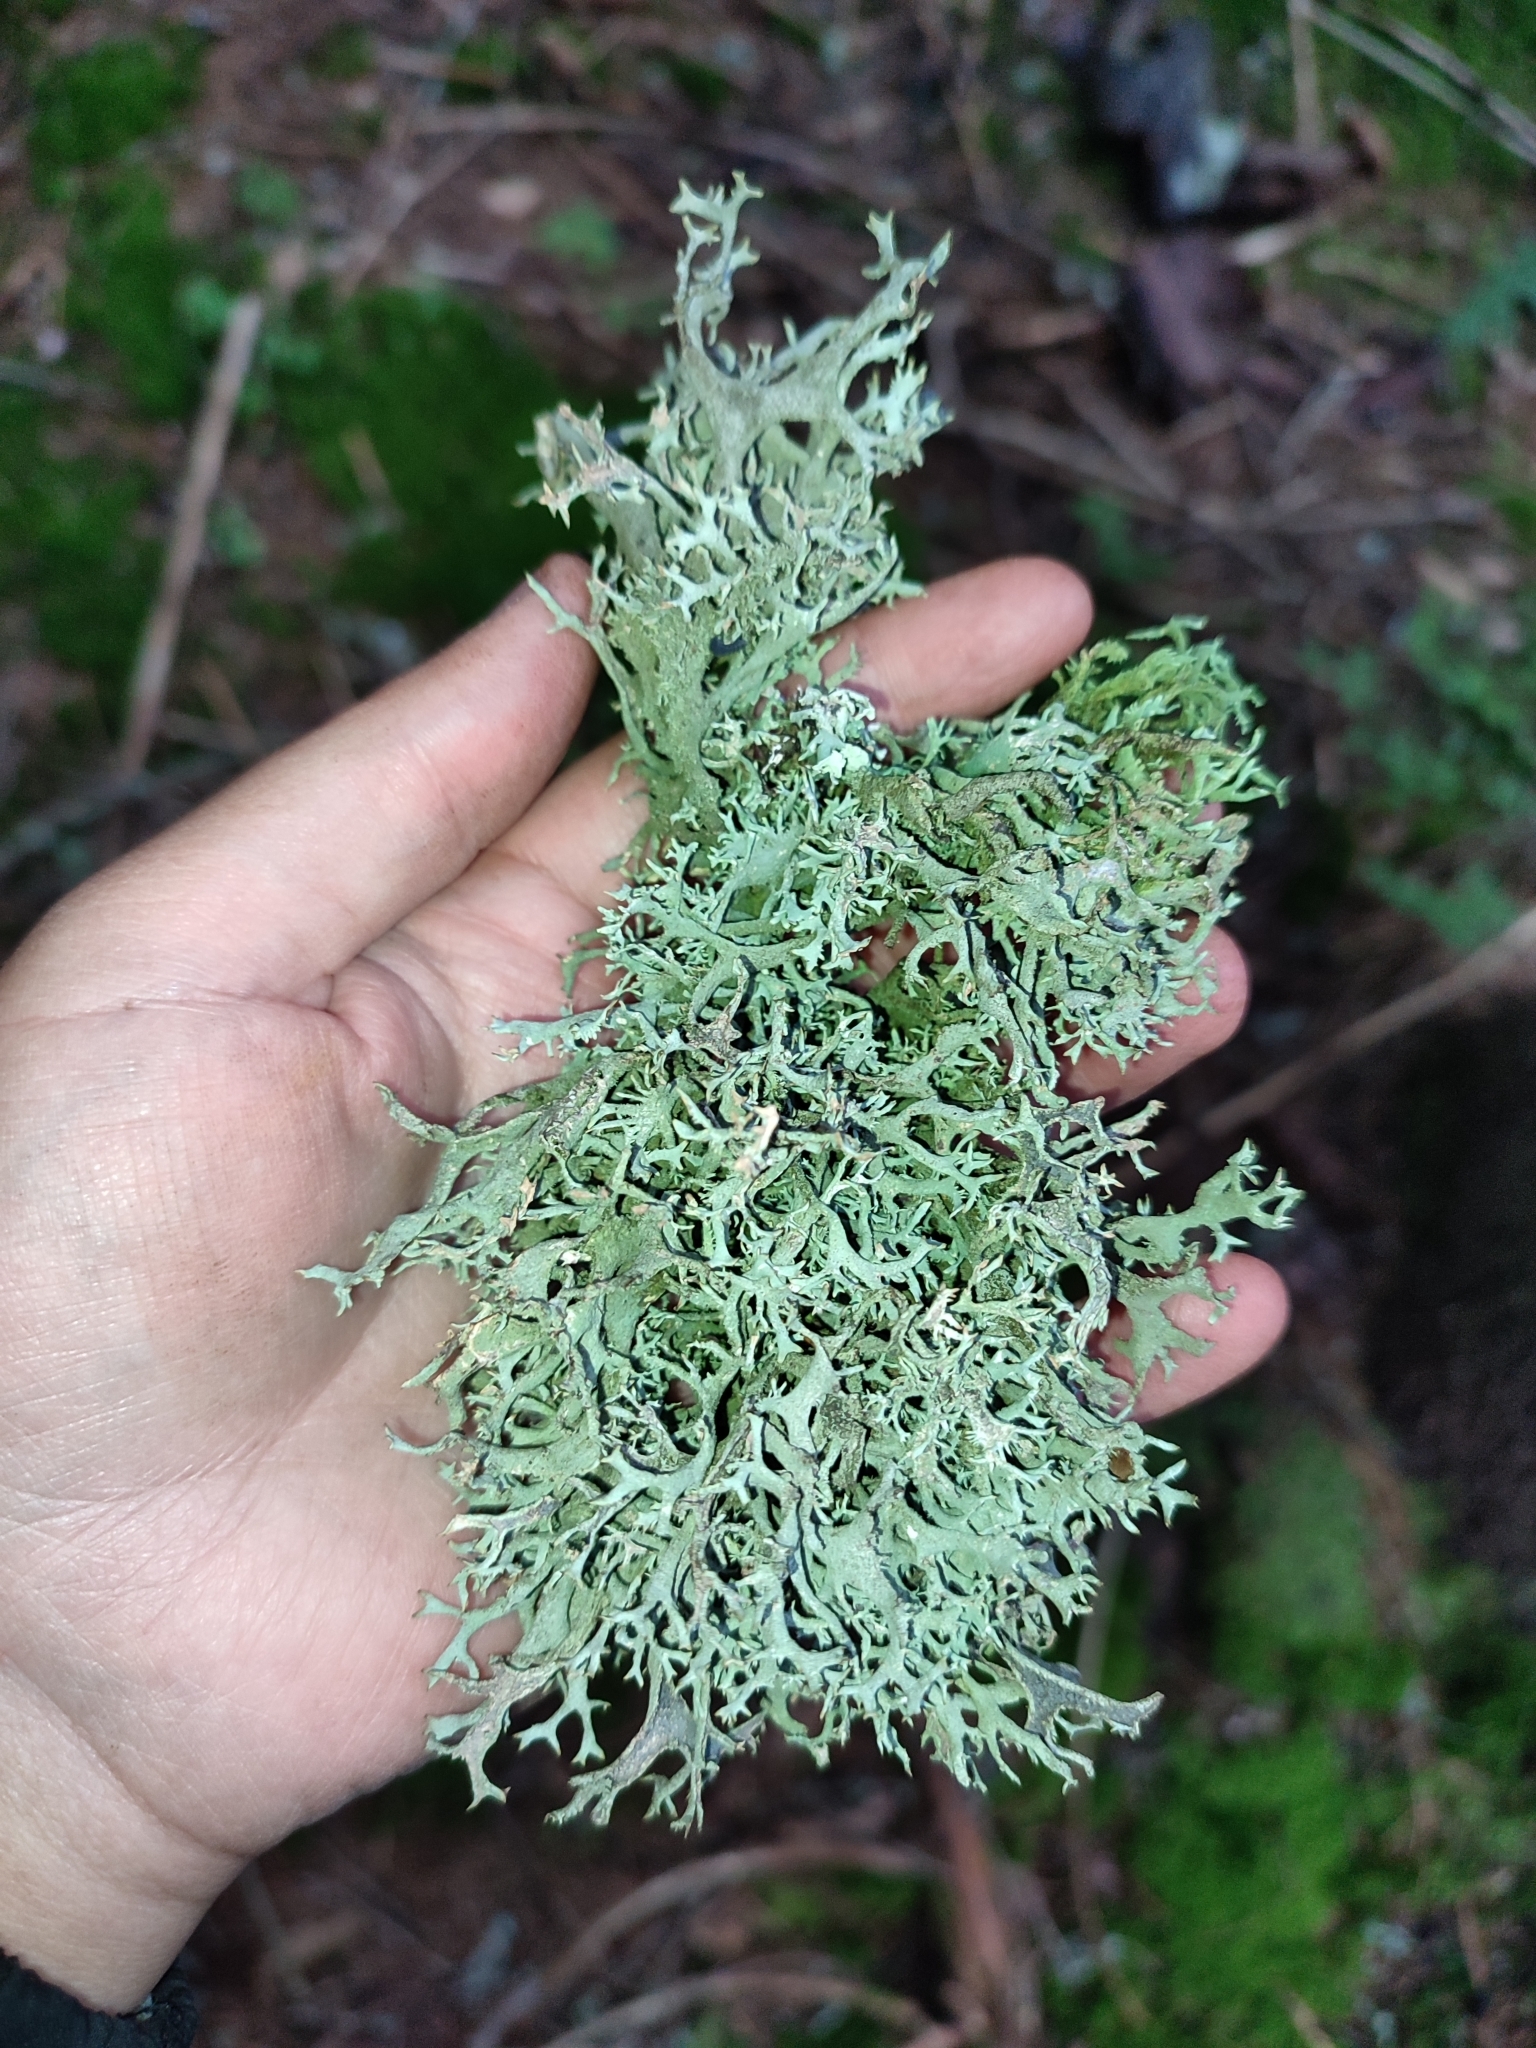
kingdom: Fungi
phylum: Ascomycota
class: Lecanoromycetes
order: Lecanorales
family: Parmeliaceae
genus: Pseudevernia
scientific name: Pseudevernia furfuracea
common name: Tree moss
